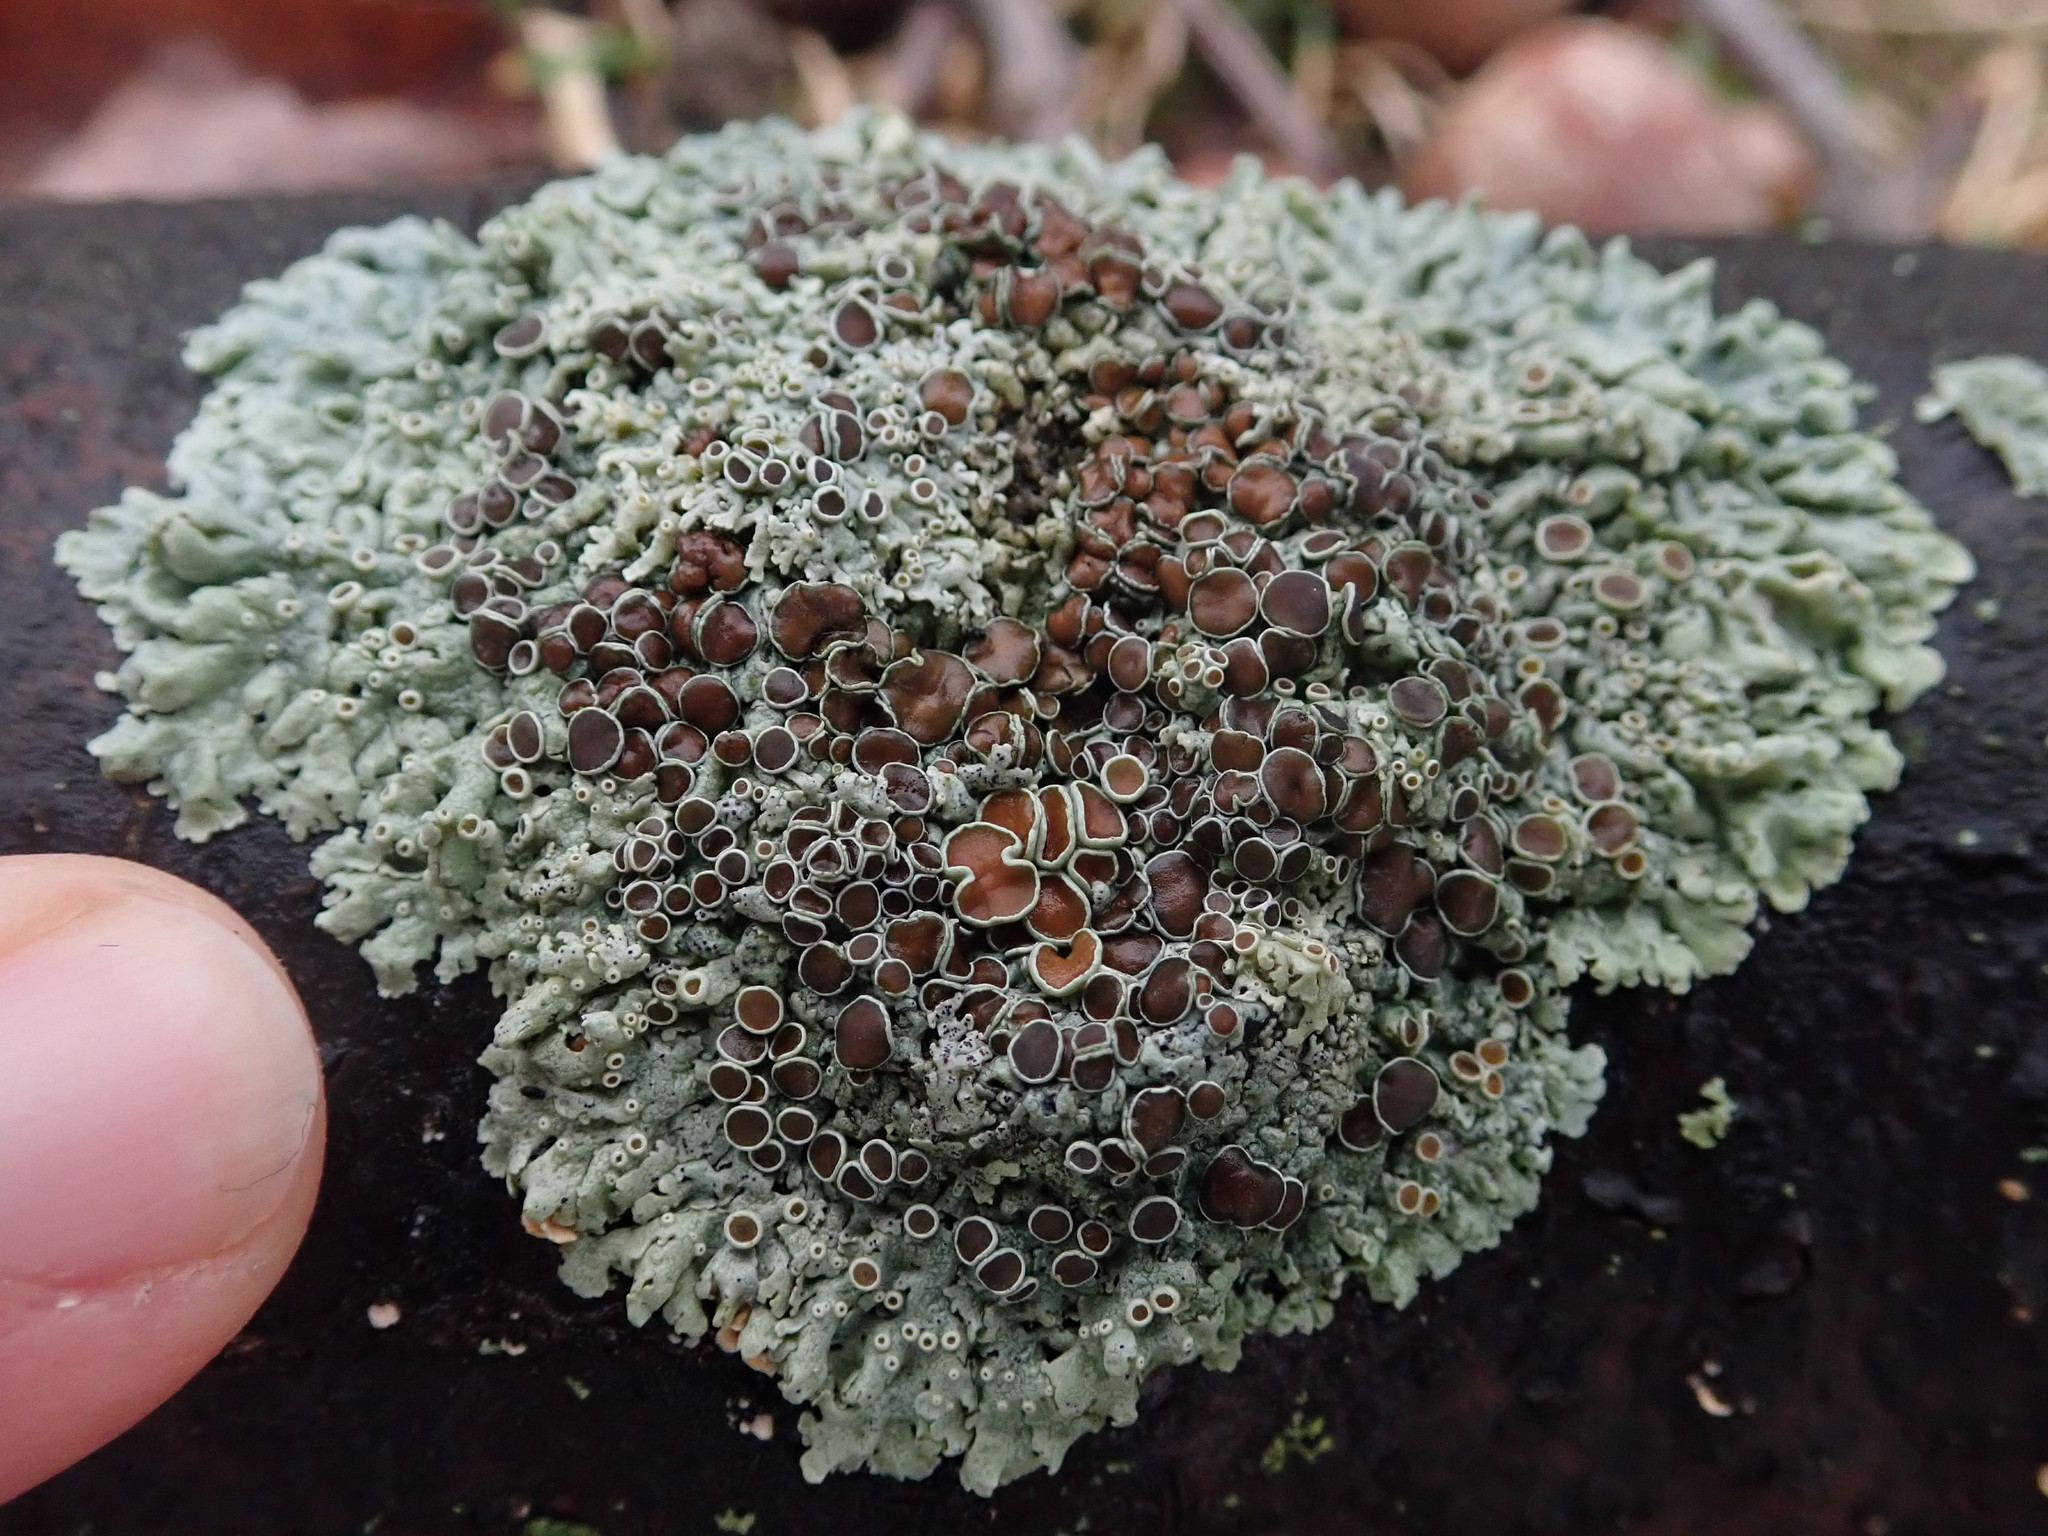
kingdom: Fungi
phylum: Ascomycota
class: Lecanoromycetes
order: Caliciales
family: Physciaceae
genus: Physcia
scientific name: Physcia stellaris
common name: Star rosette lichen
